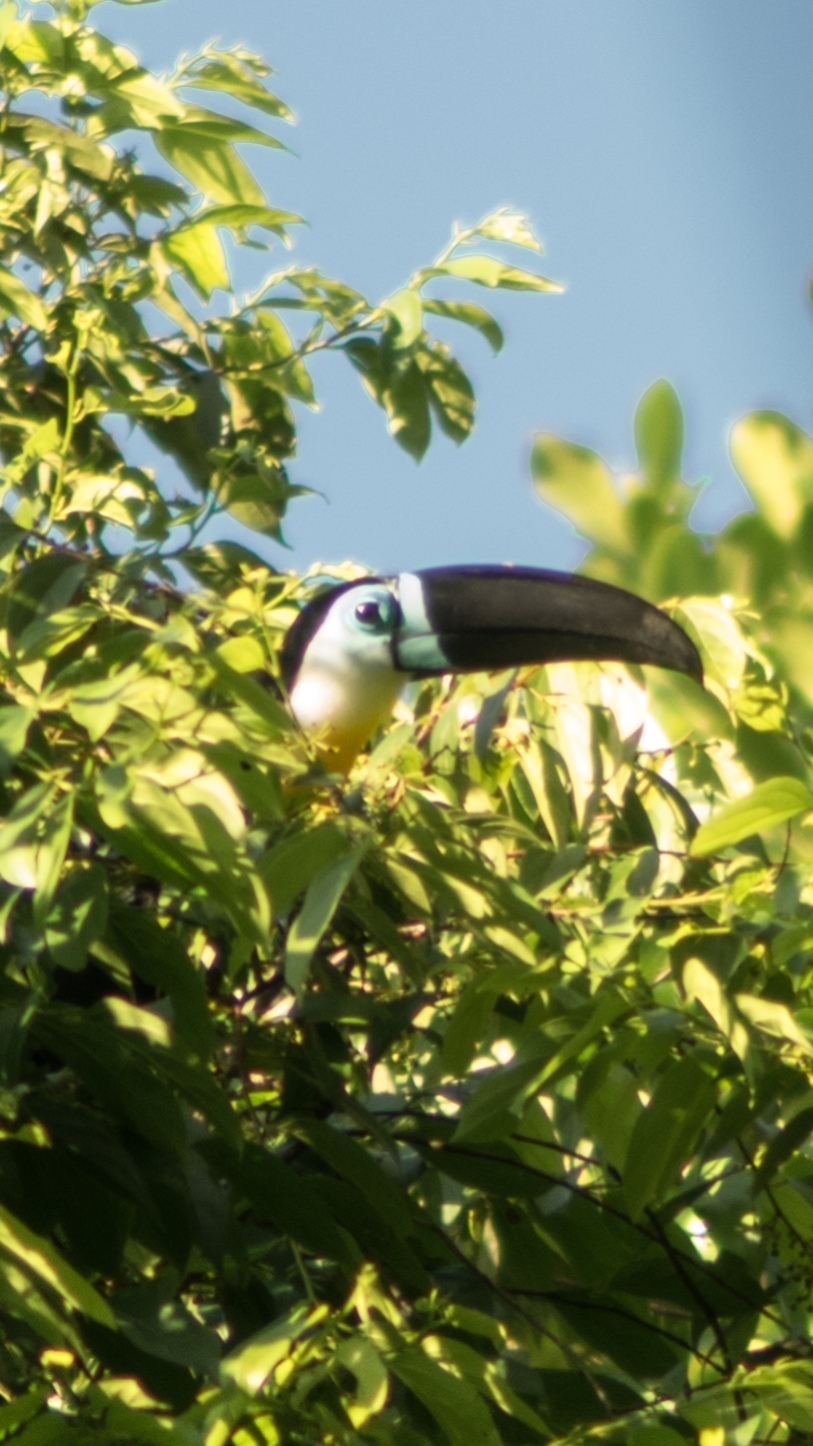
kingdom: Animalia
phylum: Chordata
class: Aves
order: Piciformes
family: Ramphastidae
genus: Ramphastos
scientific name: Ramphastos vitellinus
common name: Channel-billed toucan
